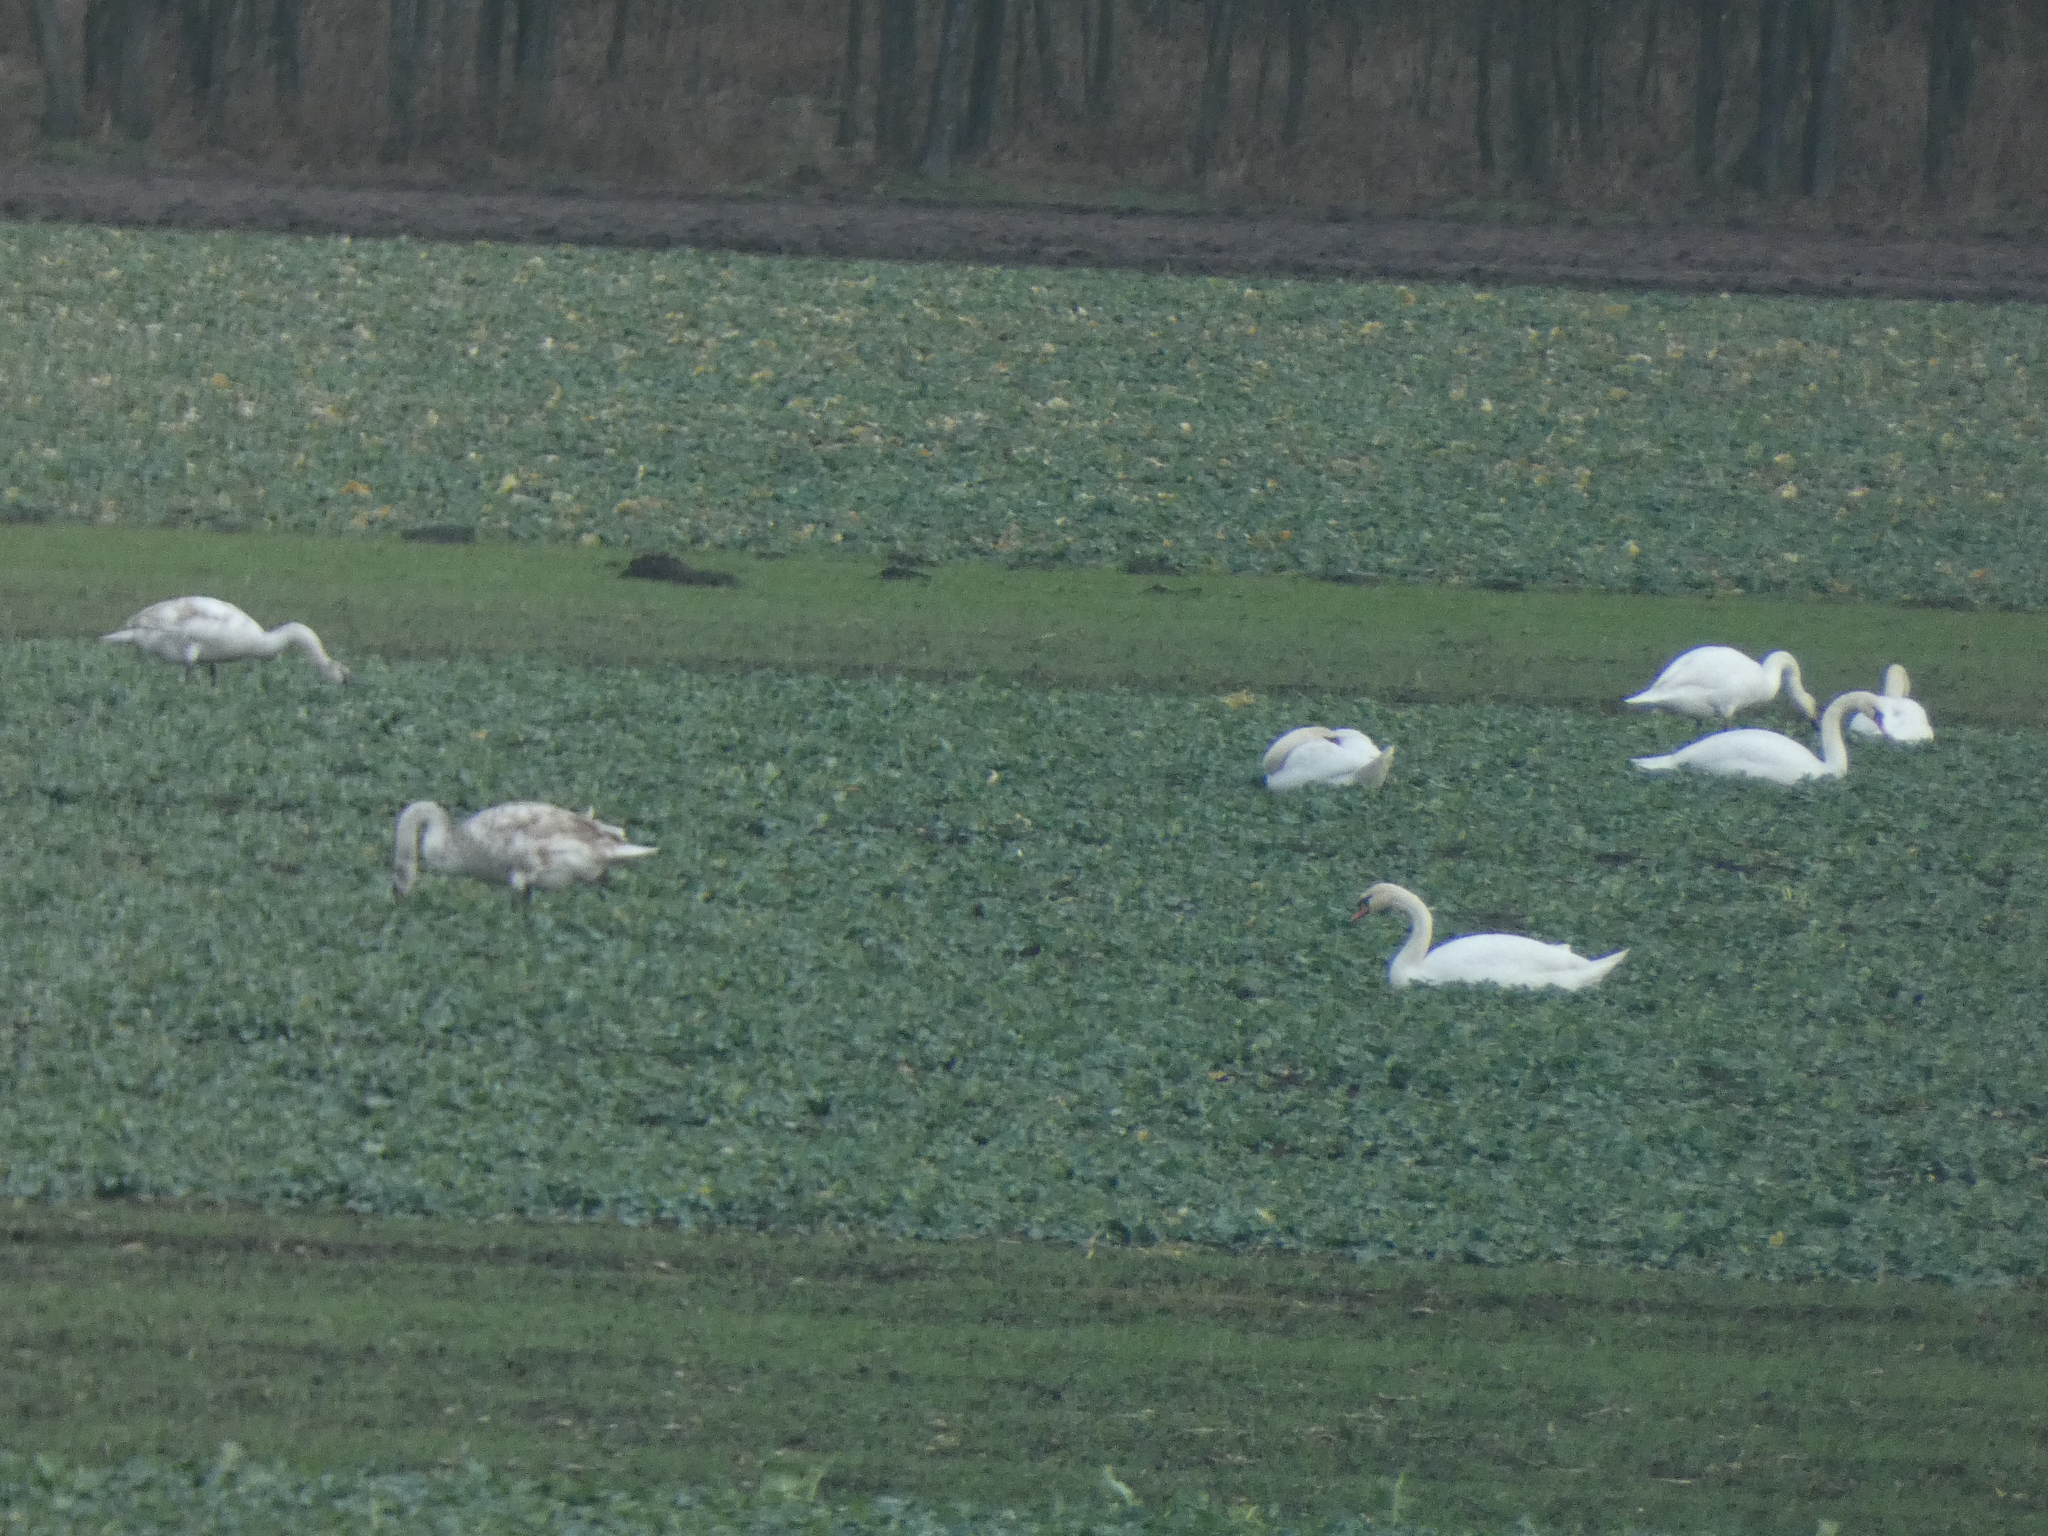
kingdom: Animalia
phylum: Chordata
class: Aves
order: Anseriformes
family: Anatidae
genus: Cygnus
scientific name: Cygnus olor
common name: Mute swan
